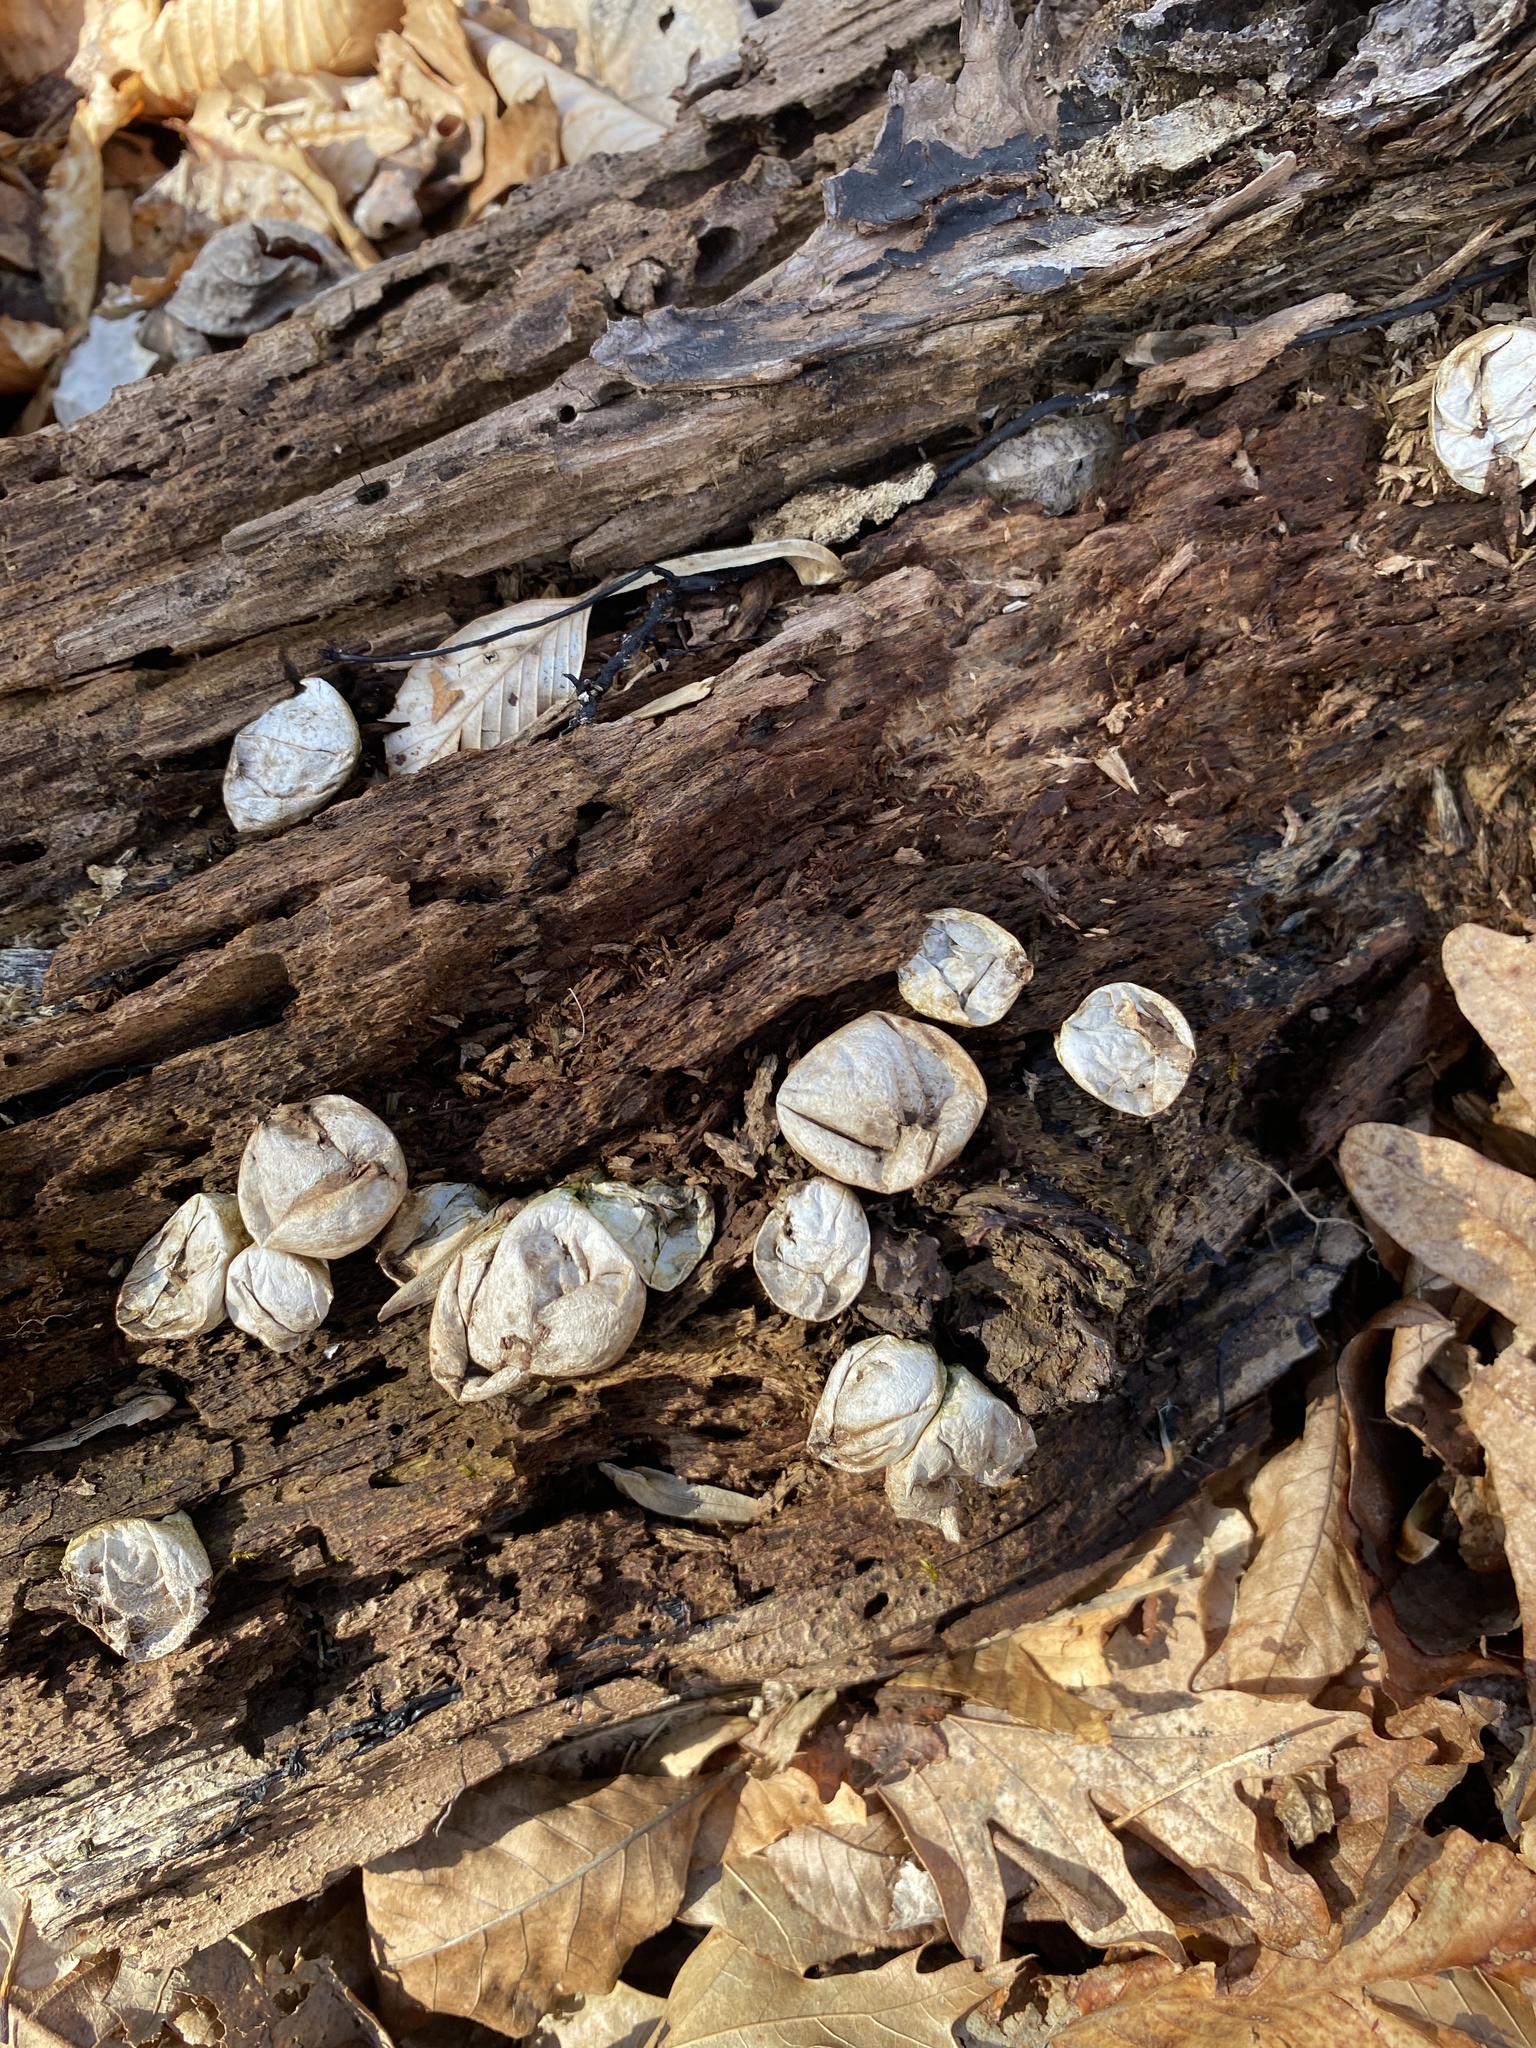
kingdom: Fungi
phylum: Basidiomycota
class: Agaricomycetes
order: Agaricales
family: Lycoperdaceae
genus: Apioperdon
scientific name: Apioperdon pyriforme
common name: Pear-shaped puffball
